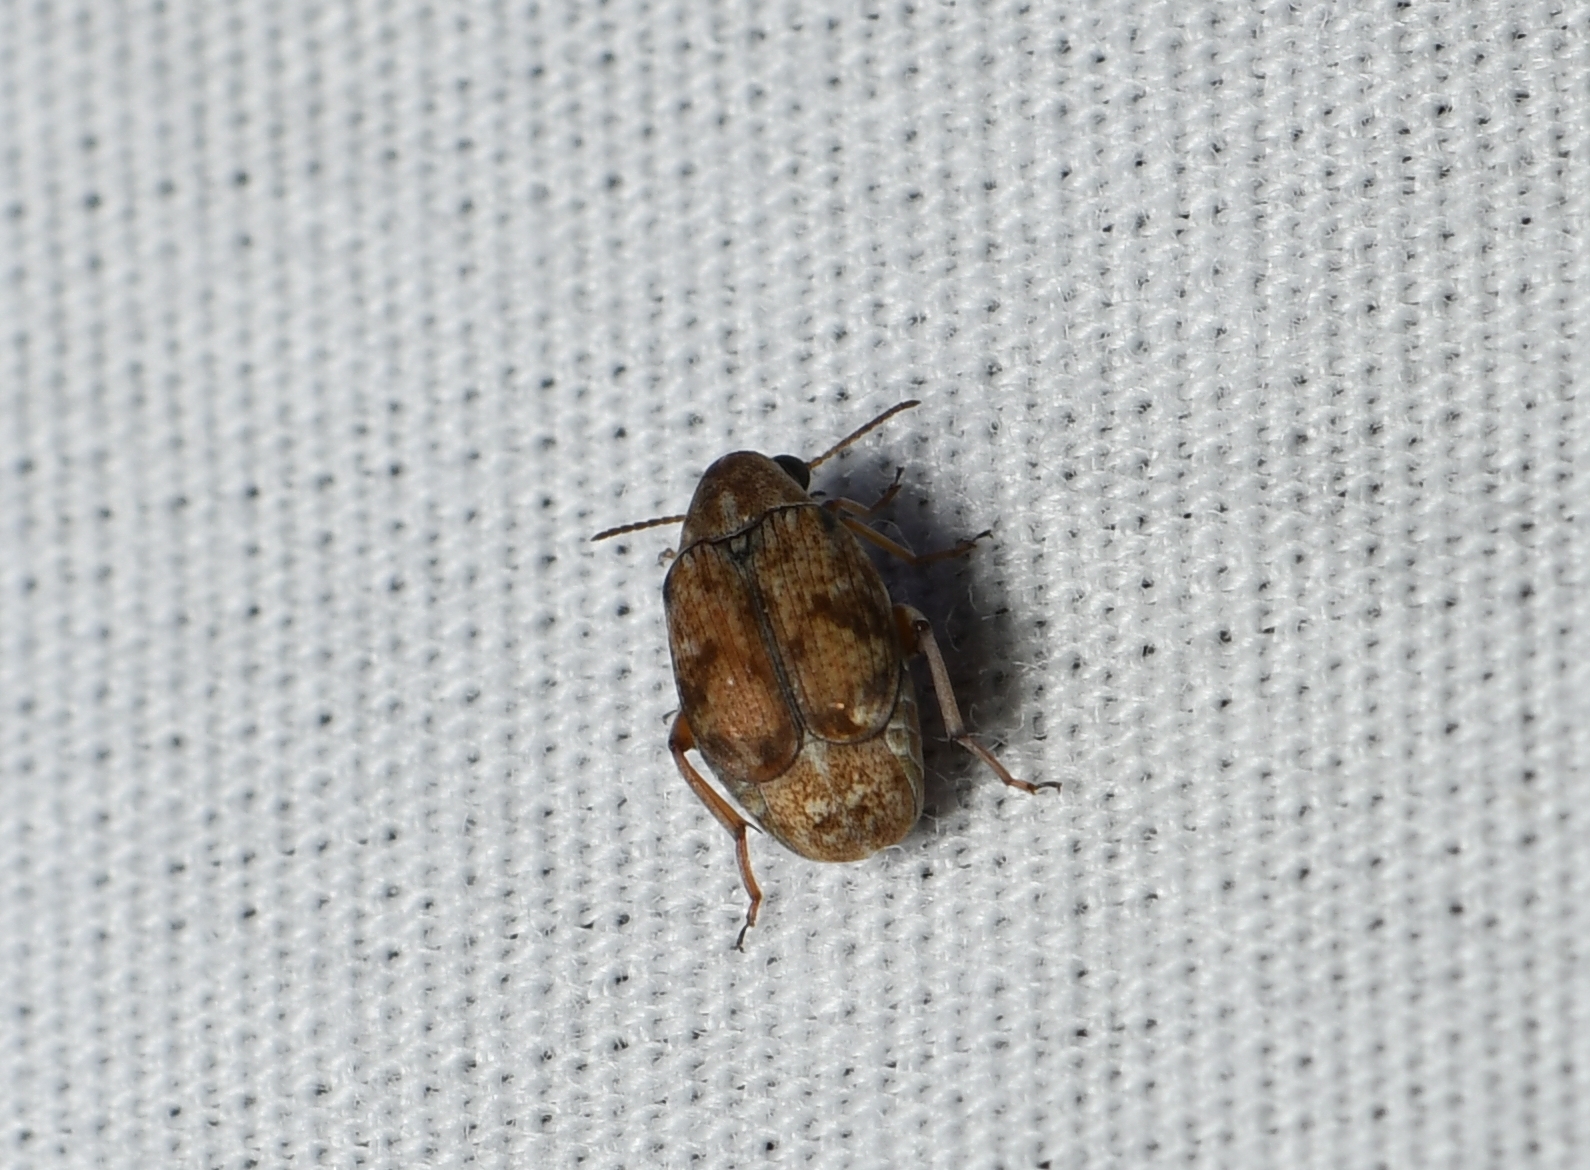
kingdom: Animalia
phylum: Arthropoda
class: Insecta
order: Coleoptera
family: Chrysomelidae
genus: Algarobius
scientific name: Algarobius prosopis
